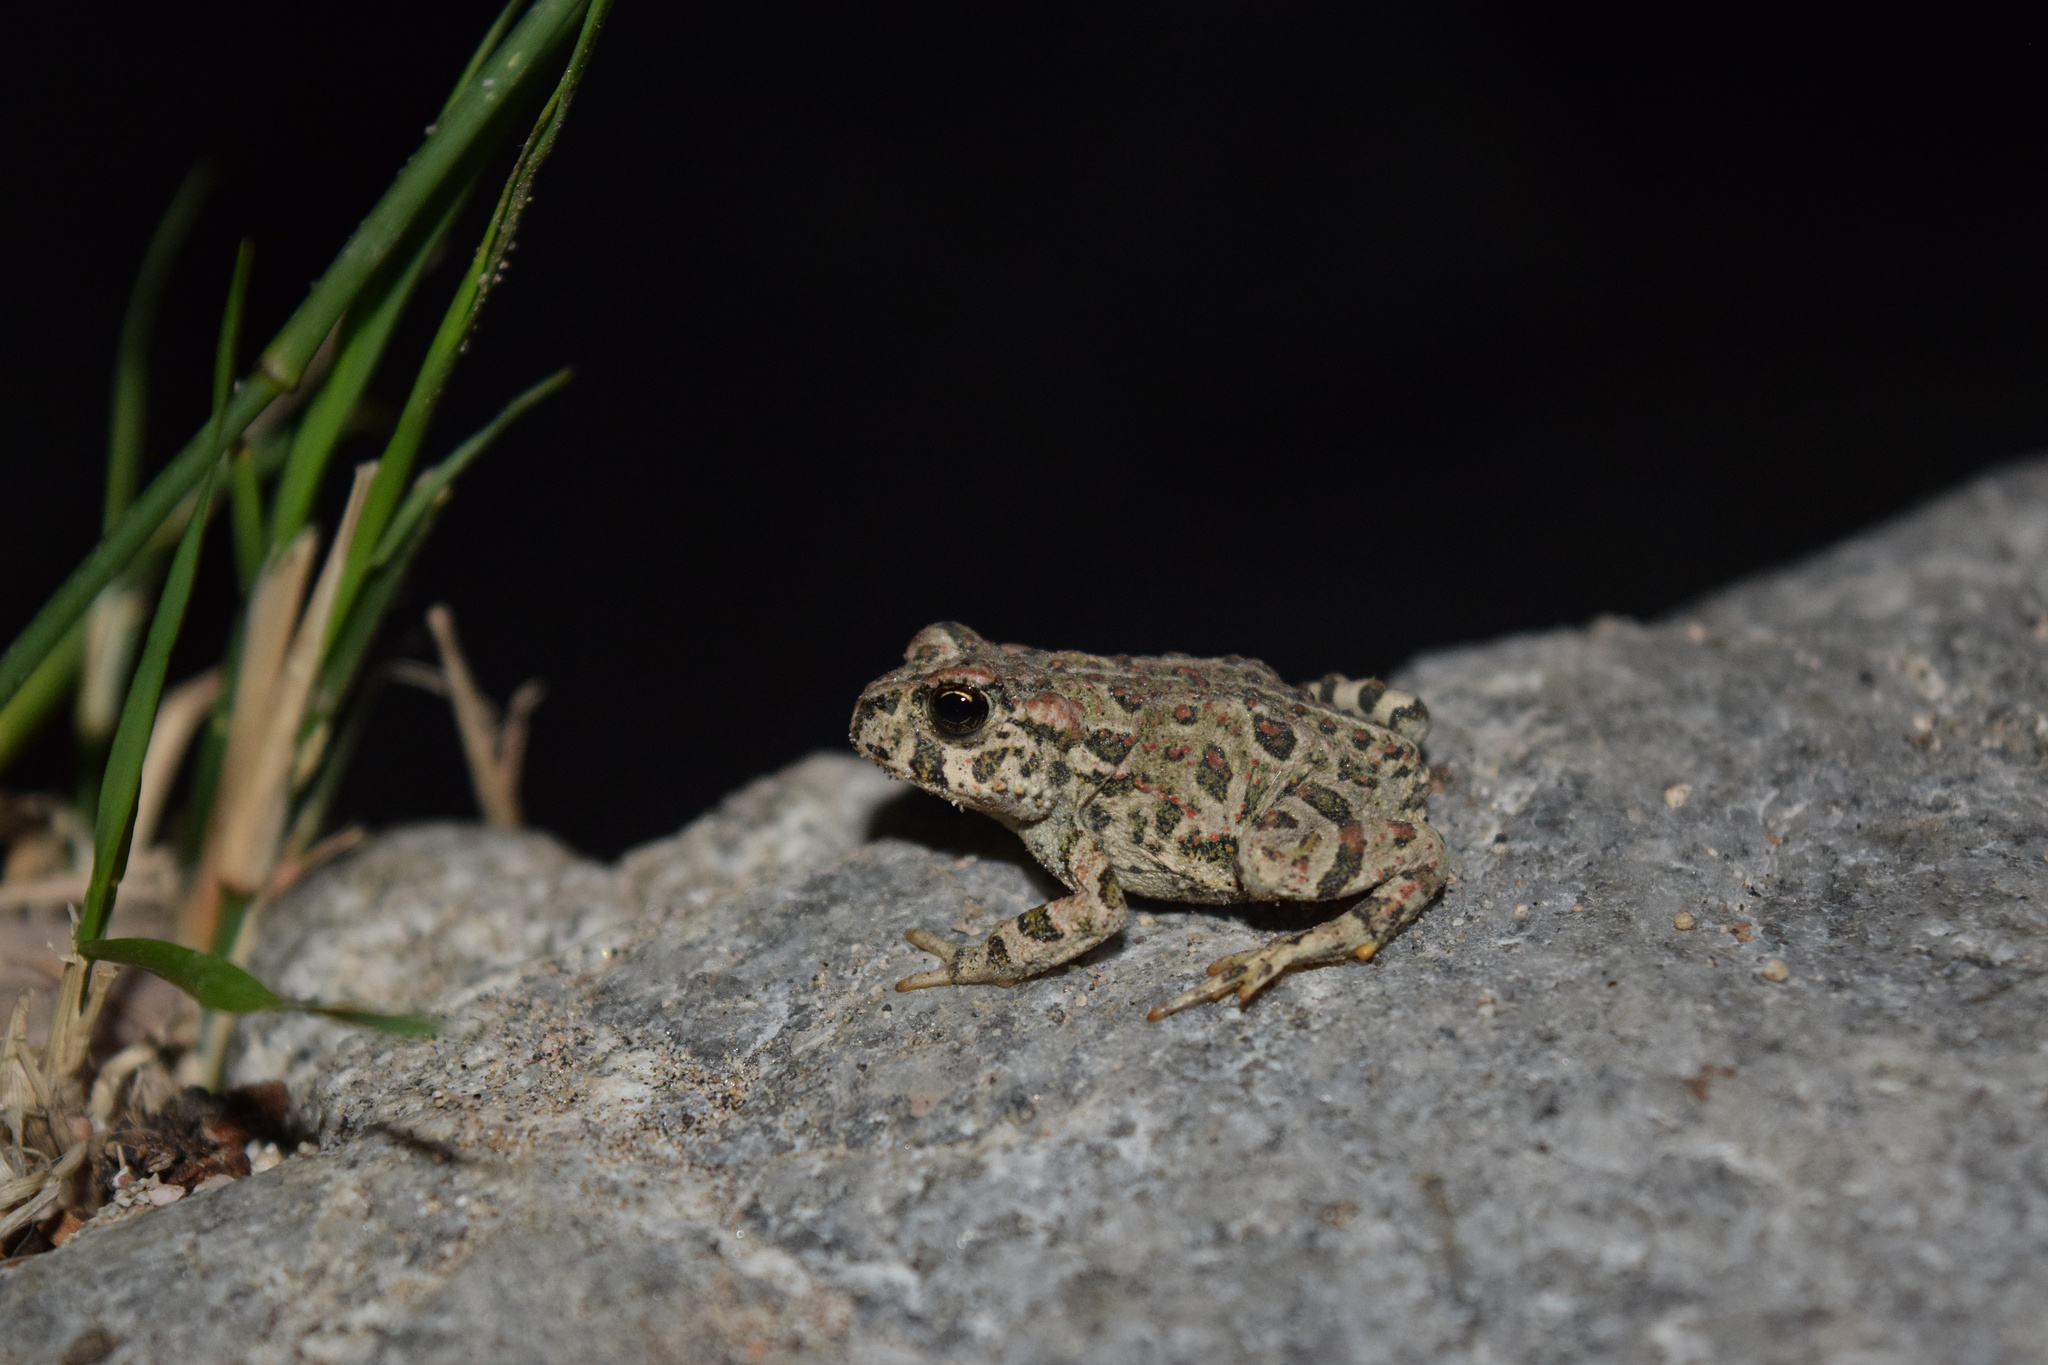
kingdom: Animalia
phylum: Chordata
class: Amphibia
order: Anura
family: Bufonidae
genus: Anaxyrus
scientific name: Anaxyrus boreas
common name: Western toad
